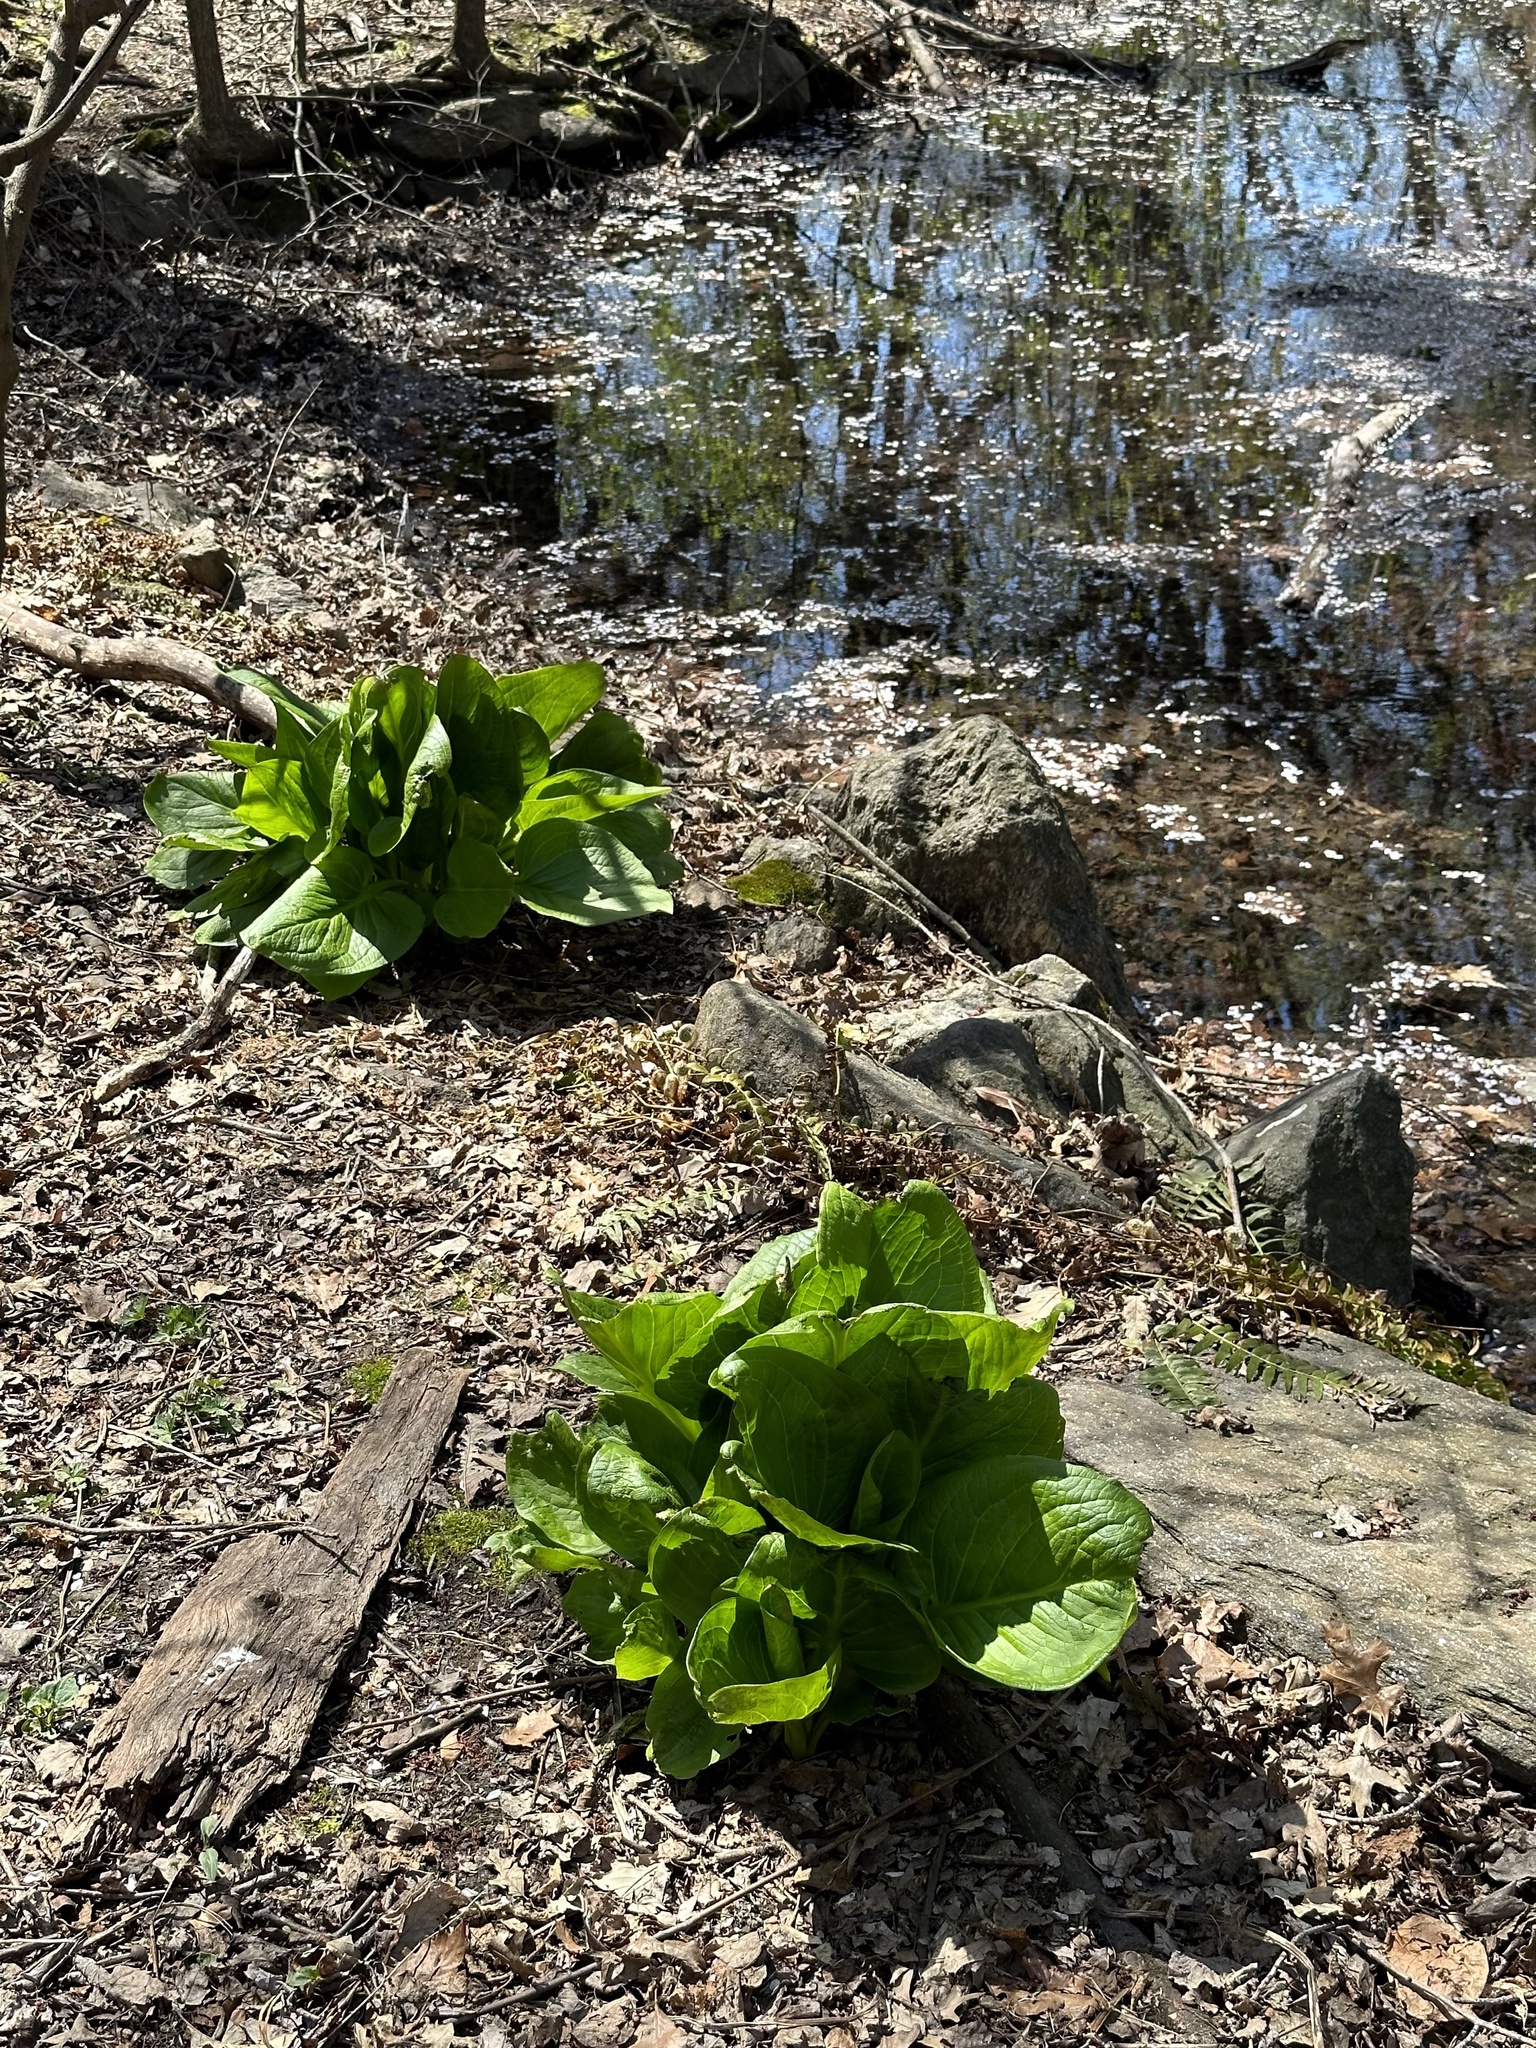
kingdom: Plantae
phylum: Tracheophyta
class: Liliopsida
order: Alismatales
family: Araceae
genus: Symplocarpus
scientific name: Symplocarpus foetidus
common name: Eastern skunk cabbage
